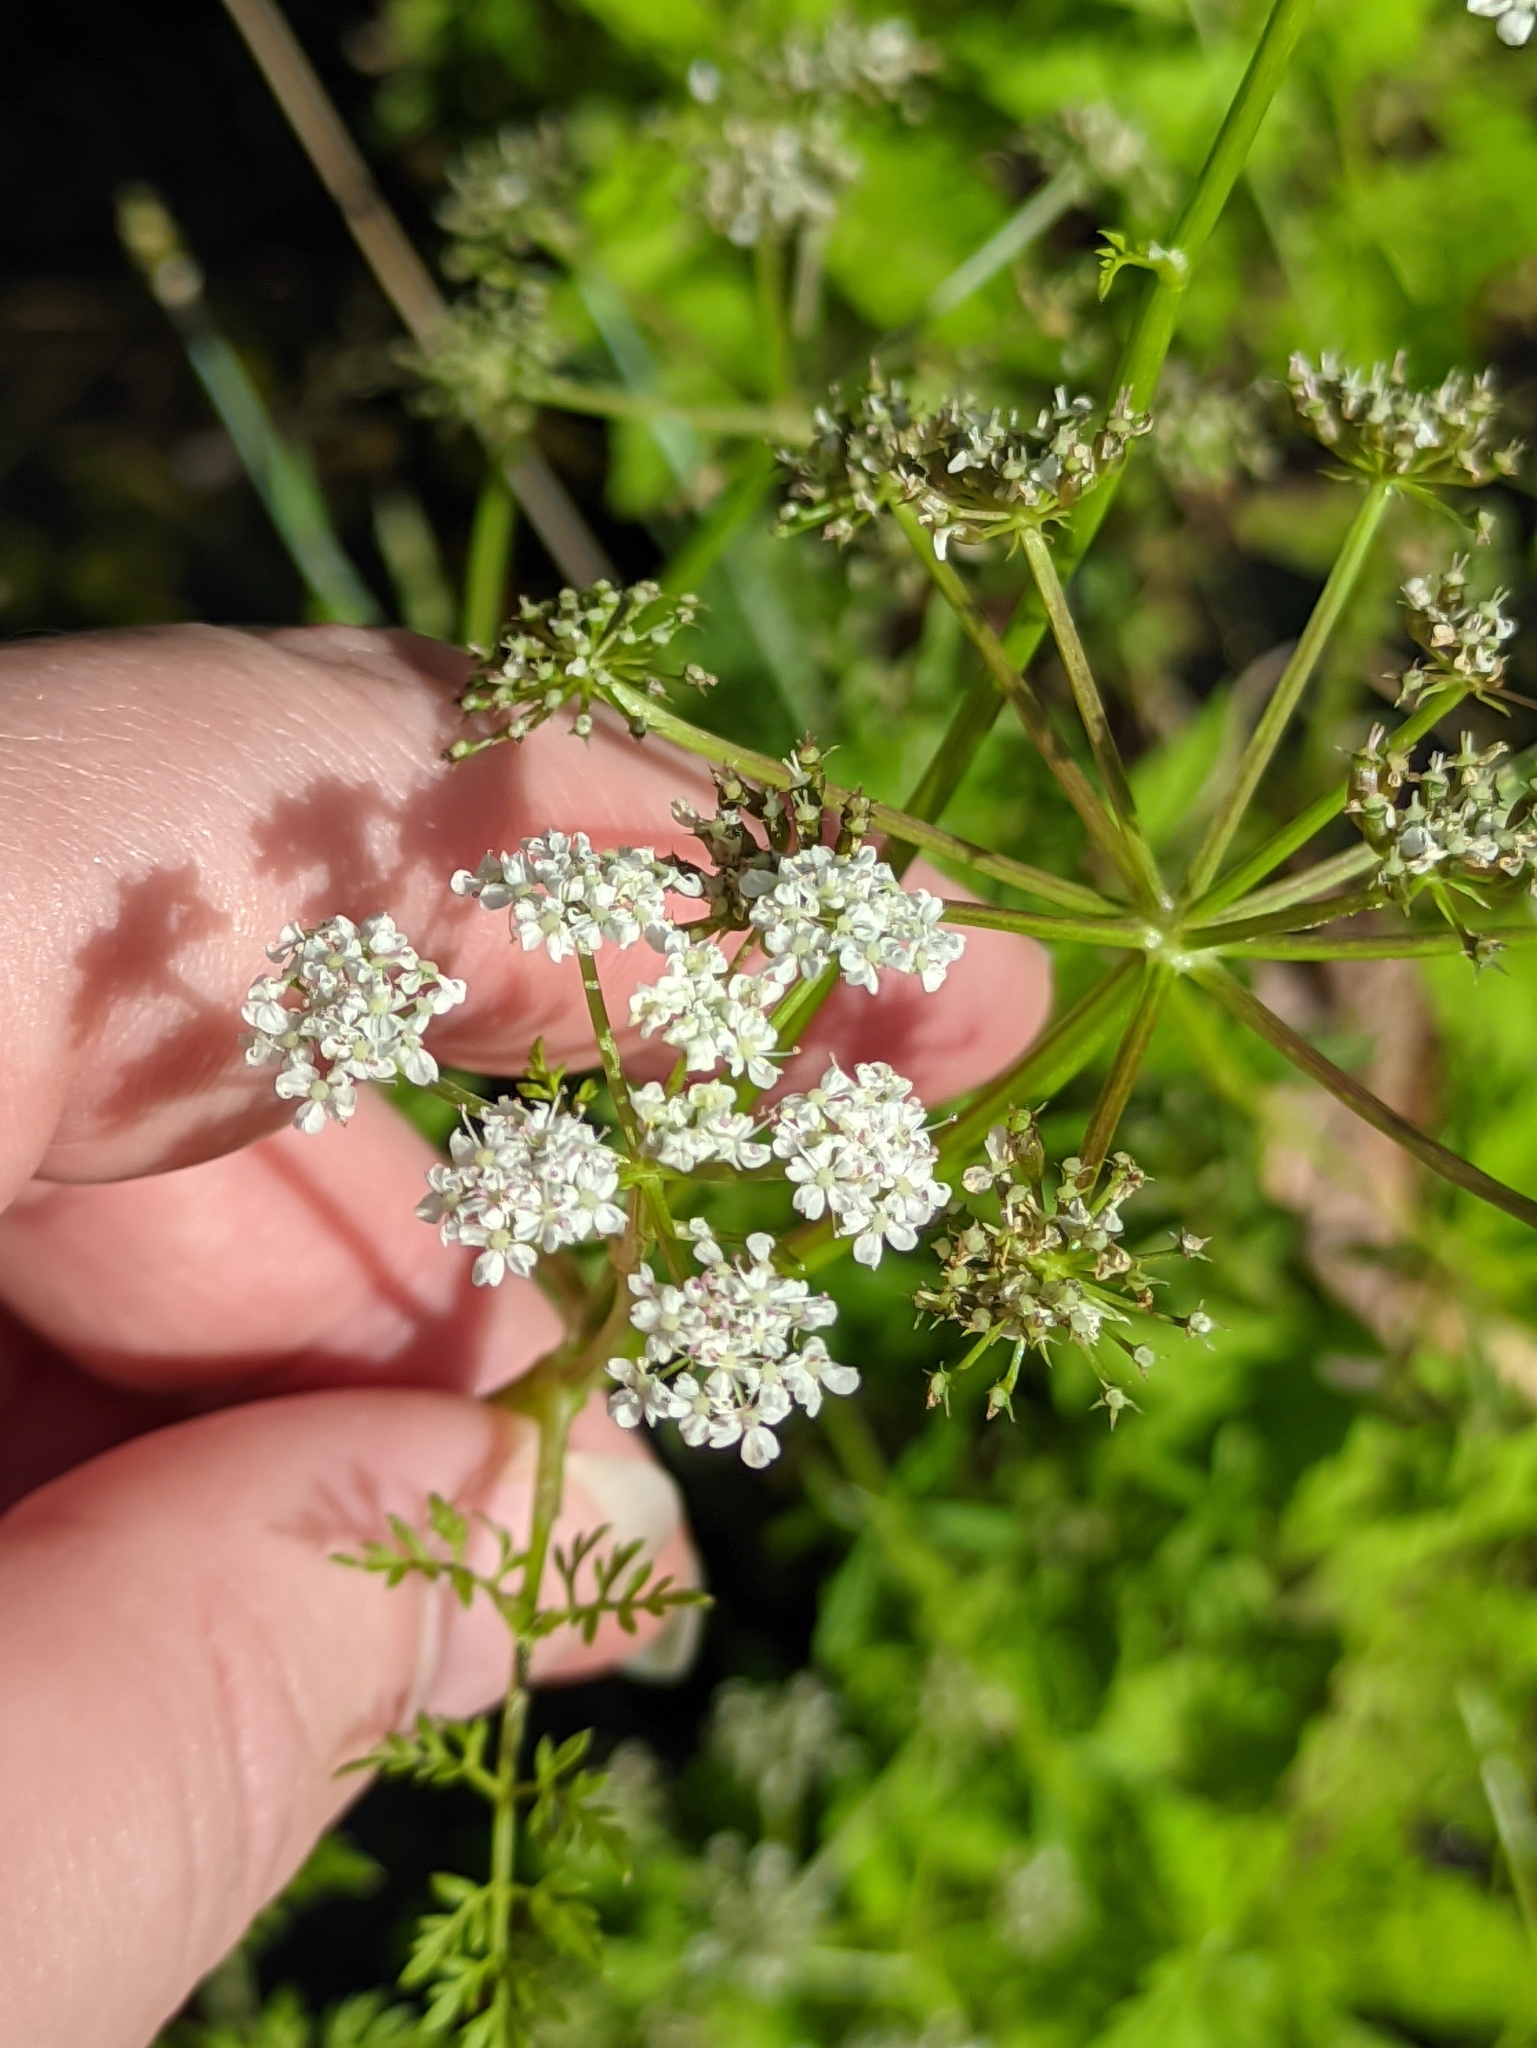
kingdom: Plantae
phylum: Tracheophyta
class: Magnoliopsida
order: Apiales
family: Apiaceae
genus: Oenanthe
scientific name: Oenanthe aquatica
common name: Fine-leaved water-dropwort
